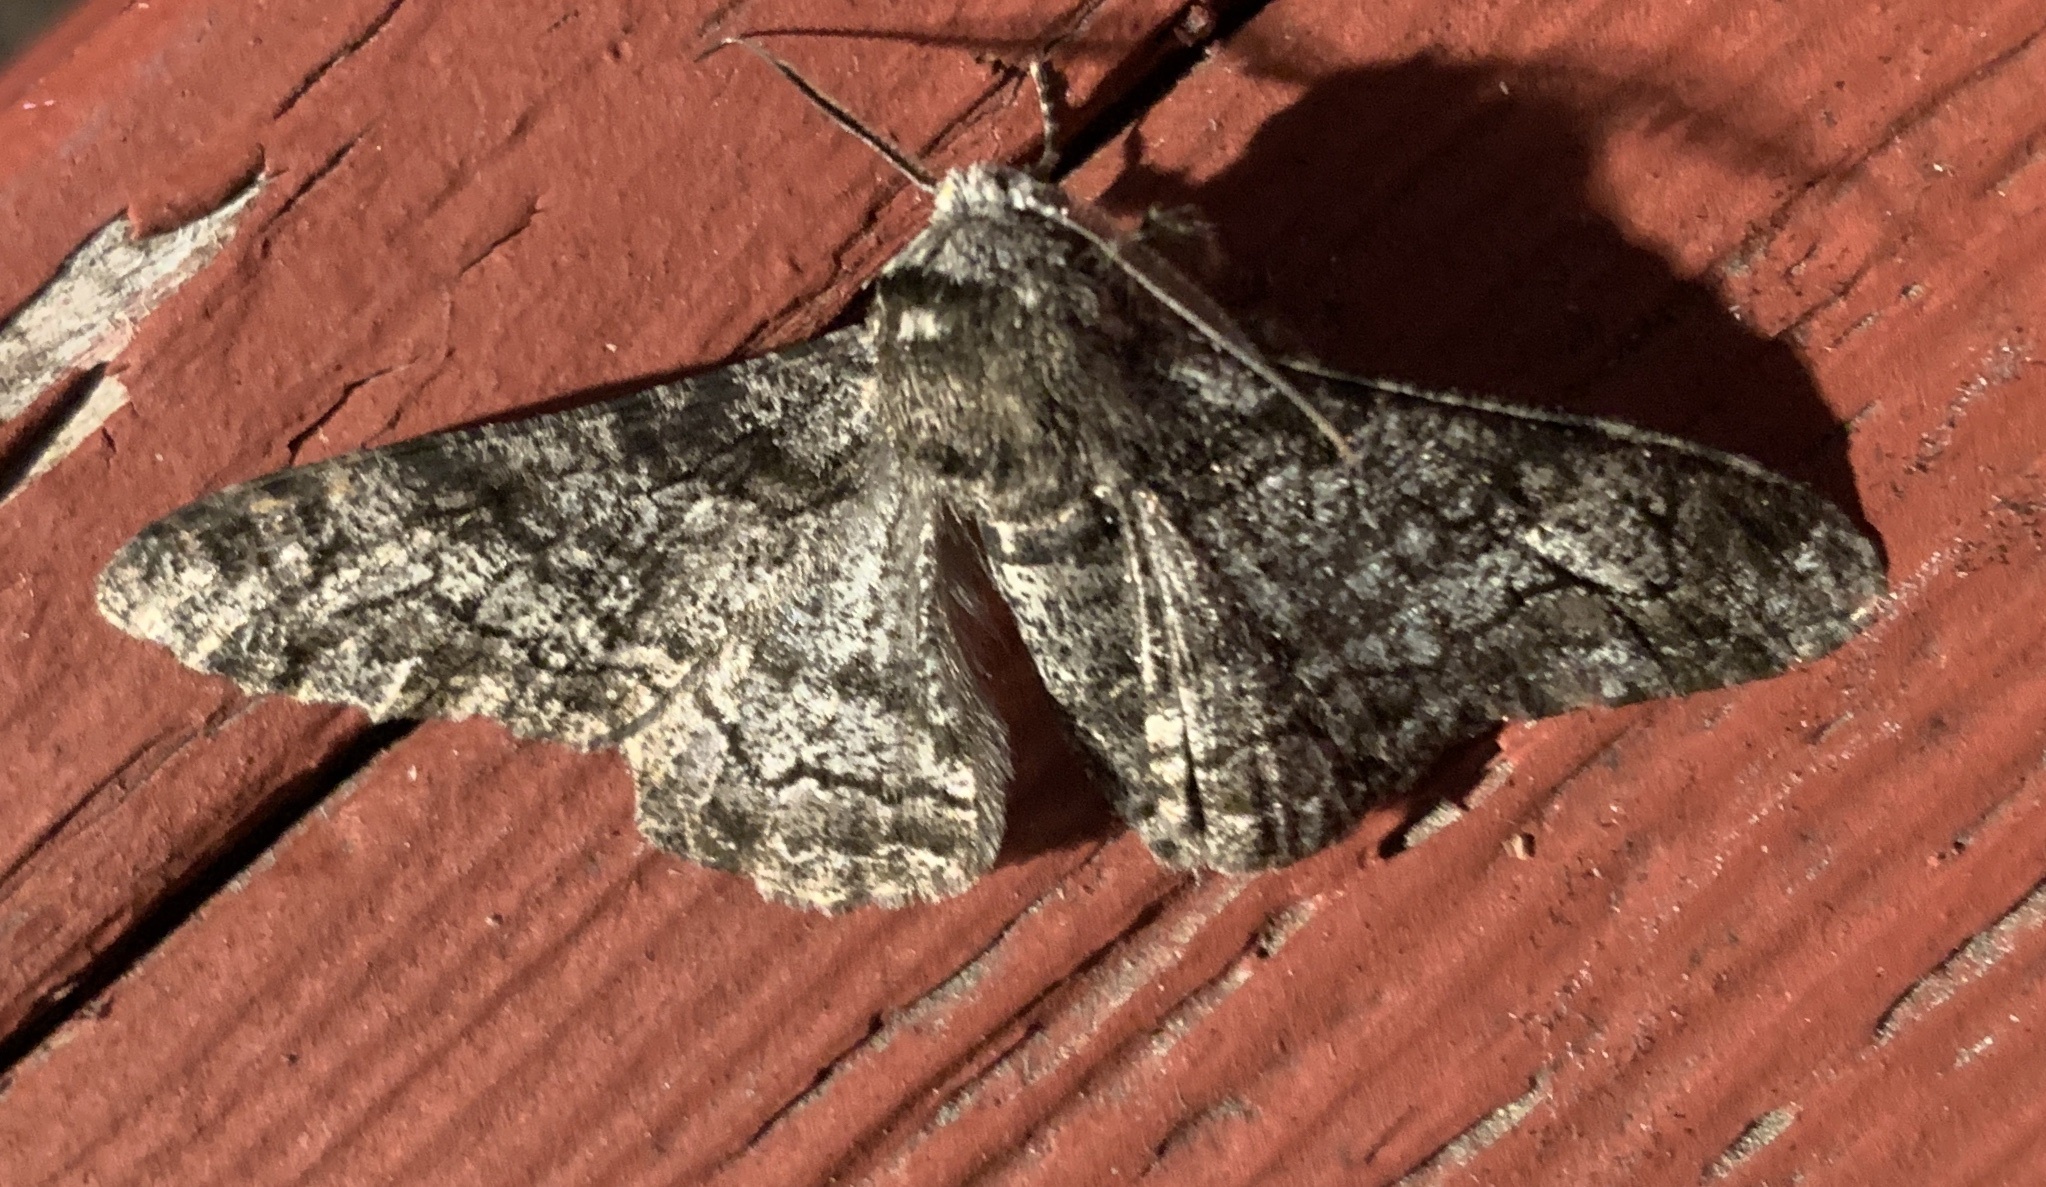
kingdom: Animalia
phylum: Arthropoda
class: Insecta
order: Lepidoptera
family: Geometridae
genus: Biston
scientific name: Biston betularia
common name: Peppered moth
